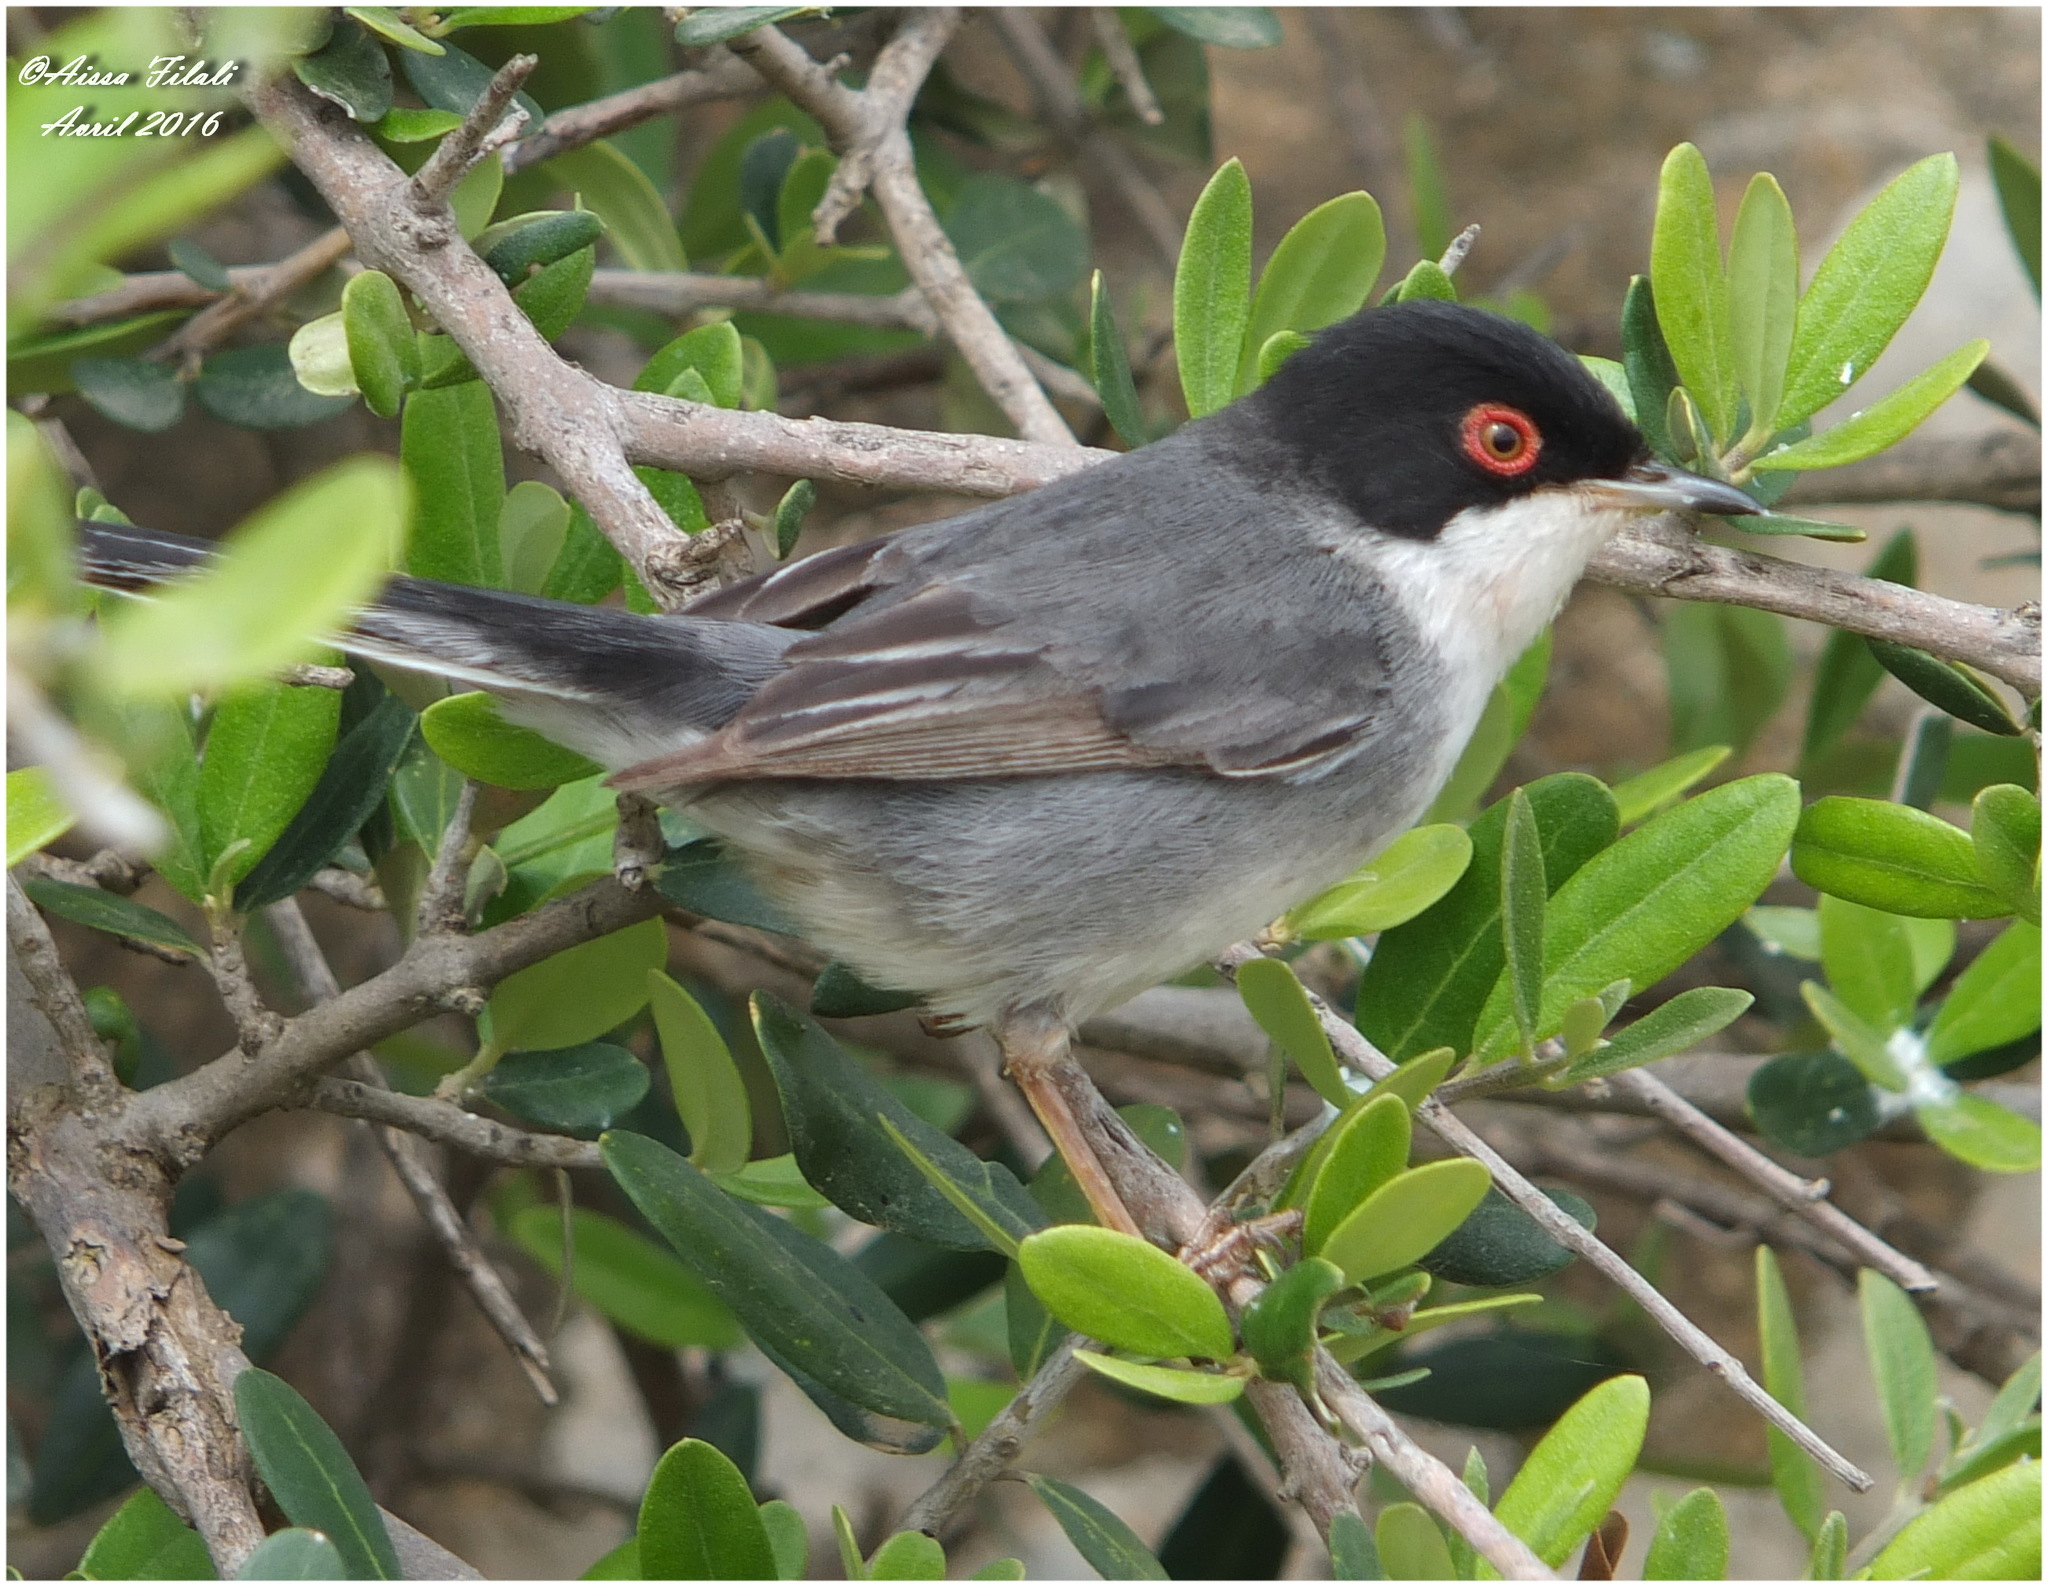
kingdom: Animalia
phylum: Chordata
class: Aves
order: Passeriformes
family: Sylviidae
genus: Curruca
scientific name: Curruca melanocephala
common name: Sardinian warbler
